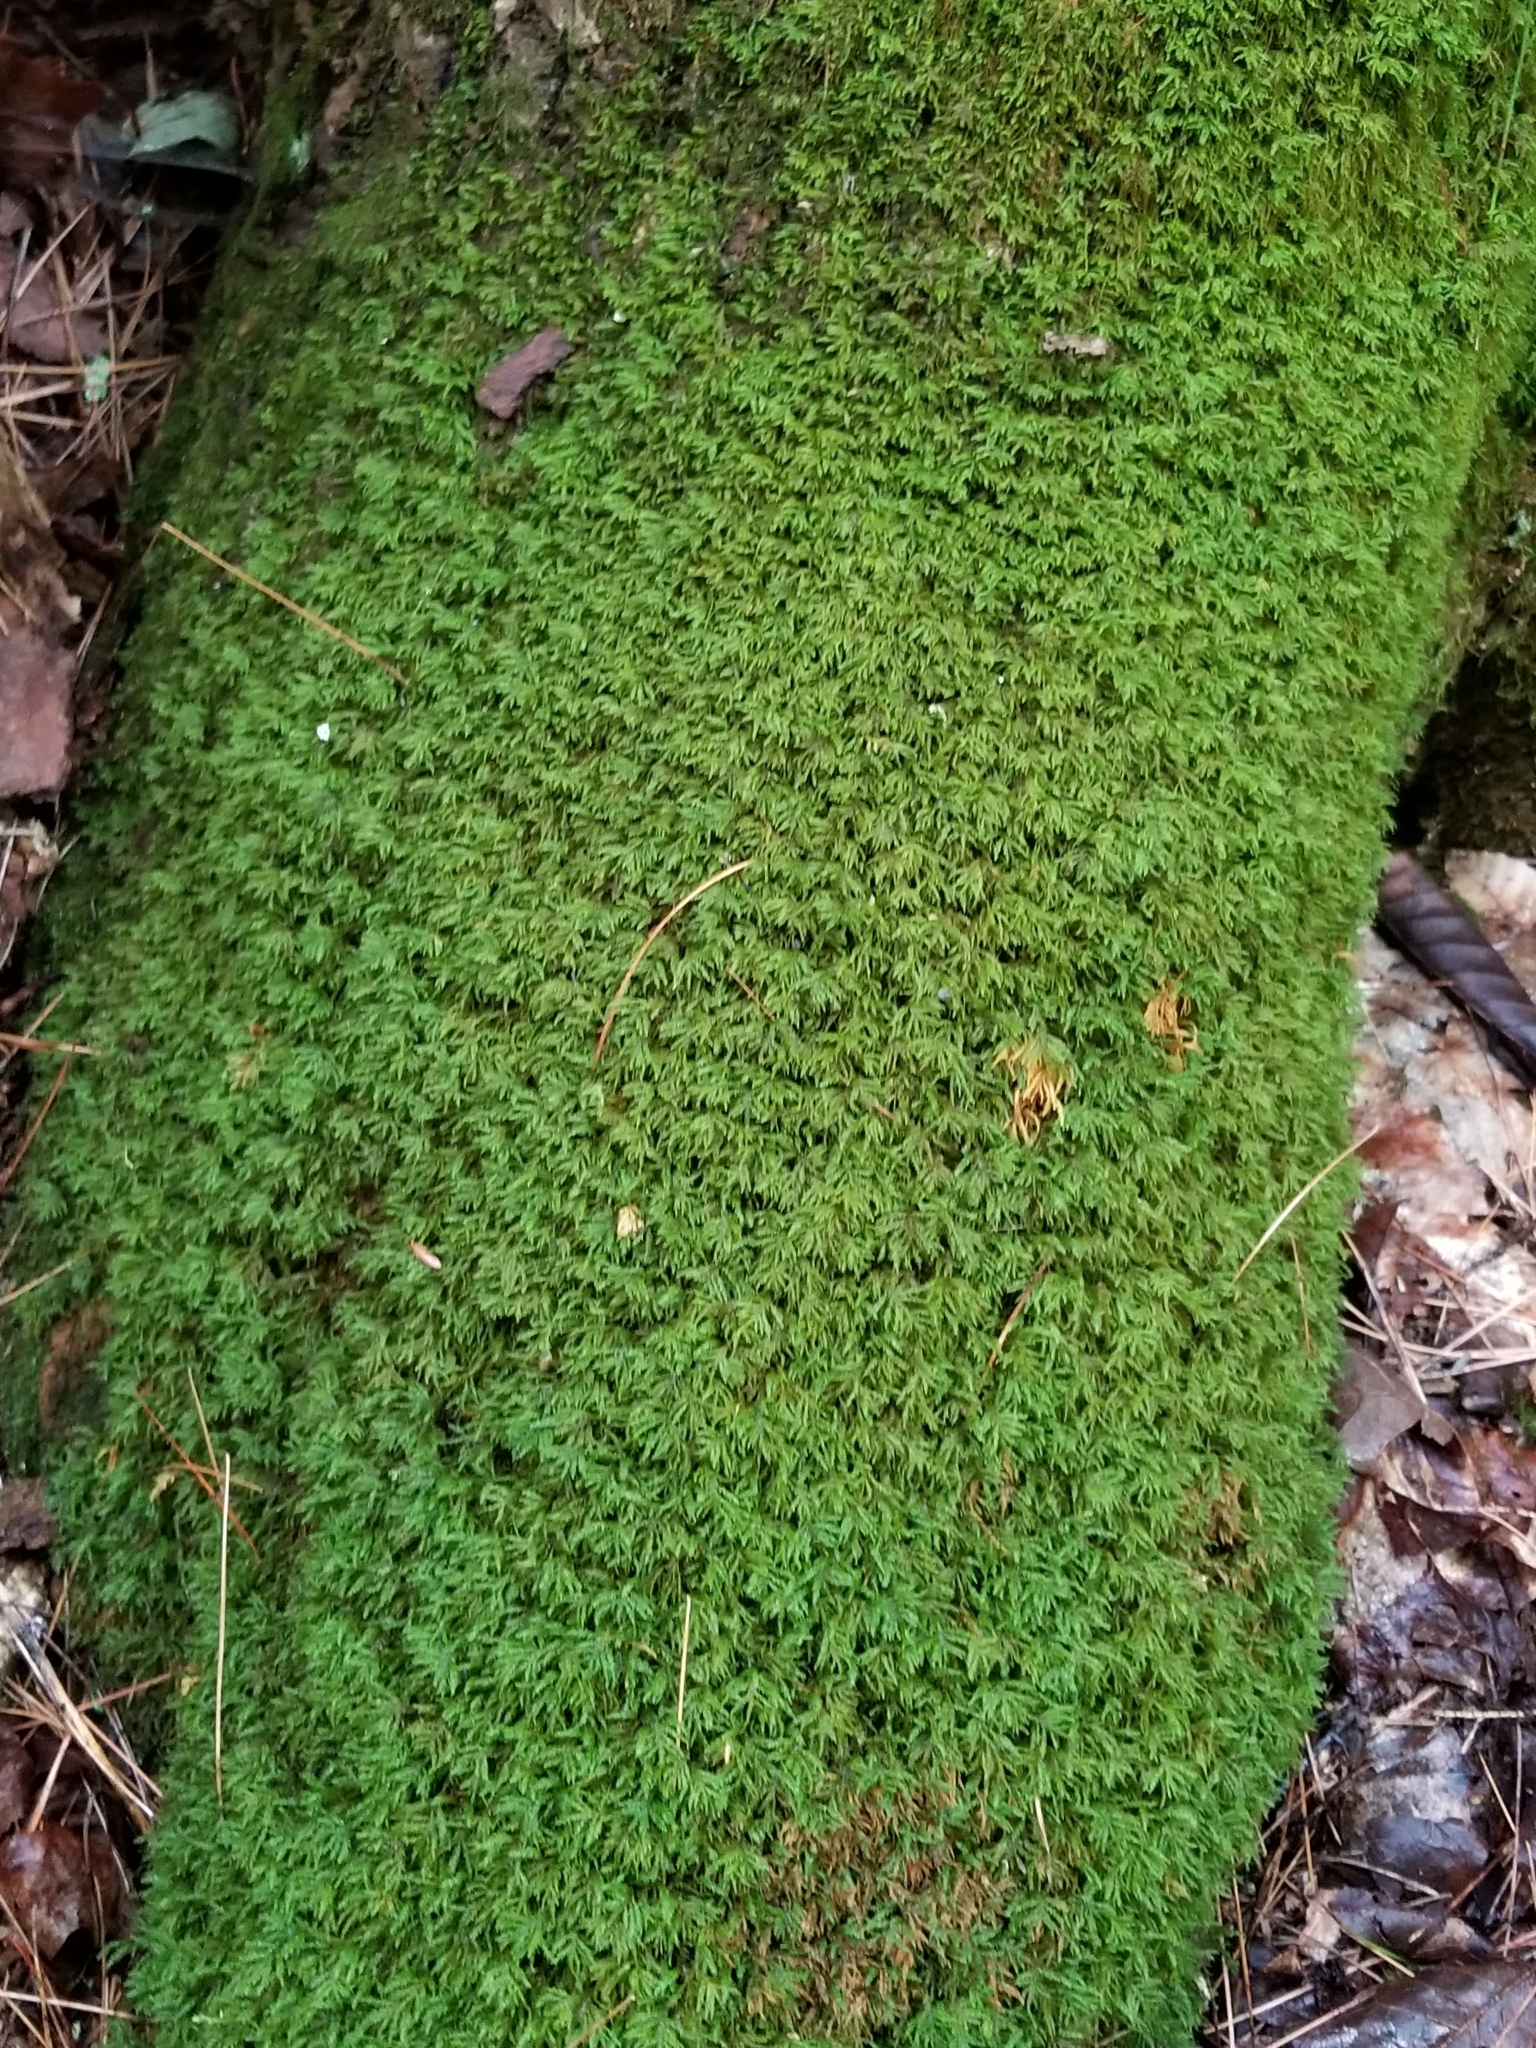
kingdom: Plantae
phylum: Bryophyta
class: Bryopsida
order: Hypnales
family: Neckeraceae
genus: Pseudanomodon
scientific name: Pseudanomodon attenuatus
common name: Tree-skirt moss
